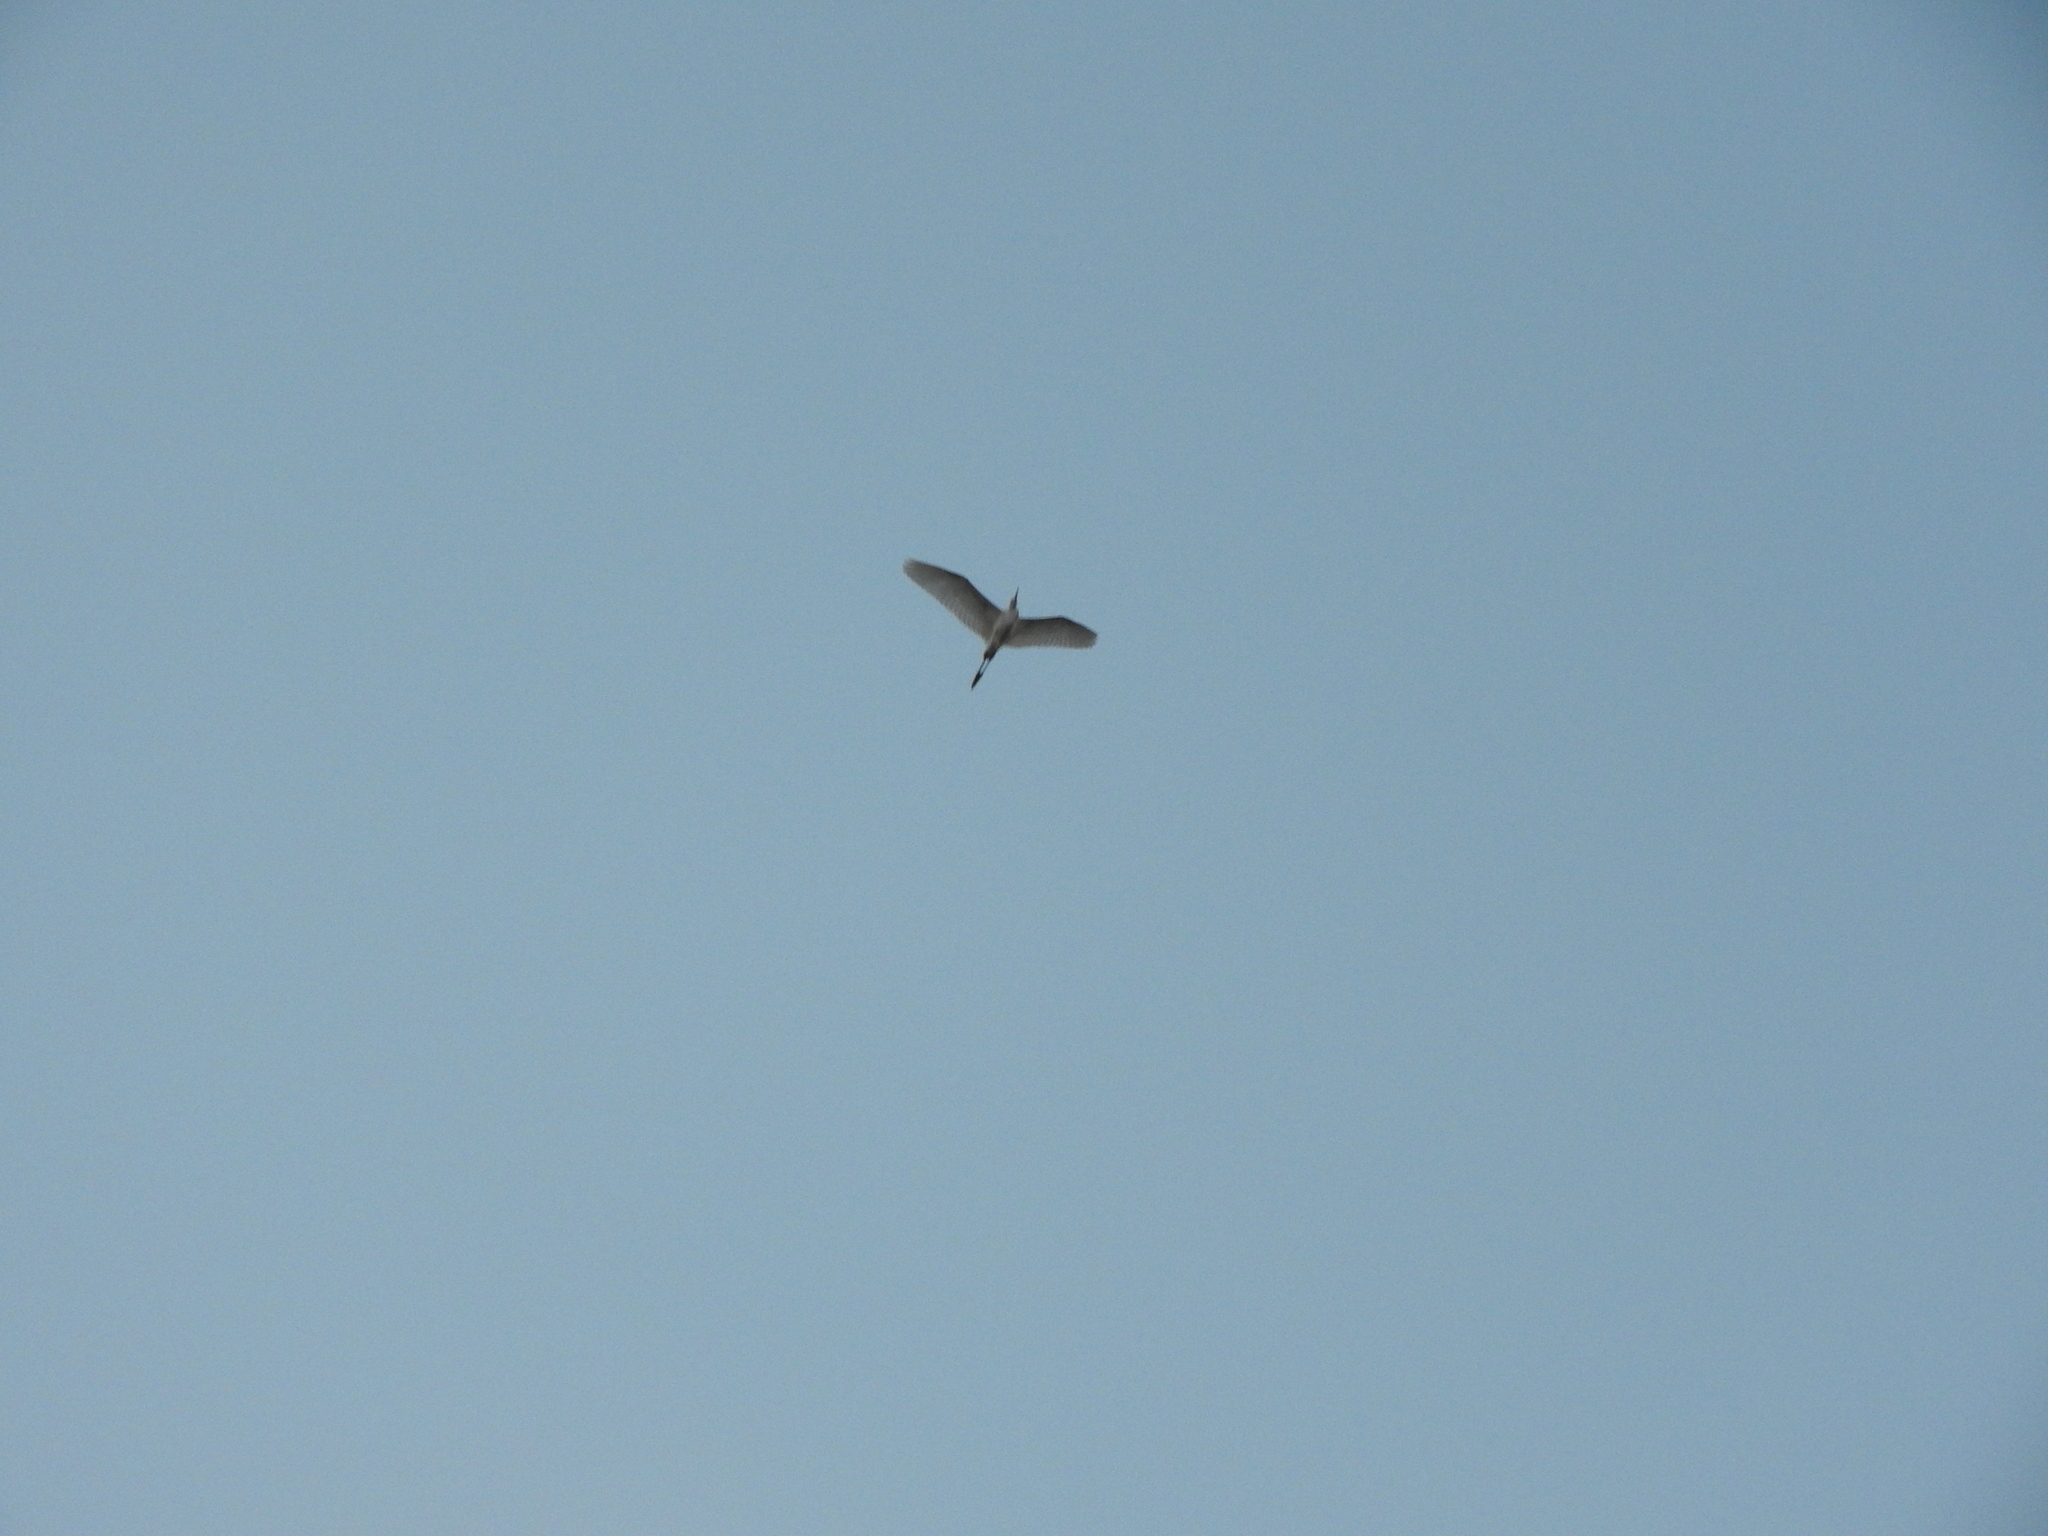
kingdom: Animalia
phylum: Chordata
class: Aves
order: Pelecaniformes
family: Ardeidae
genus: Bubulcus
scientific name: Bubulcus ibis
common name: Cattle egret
